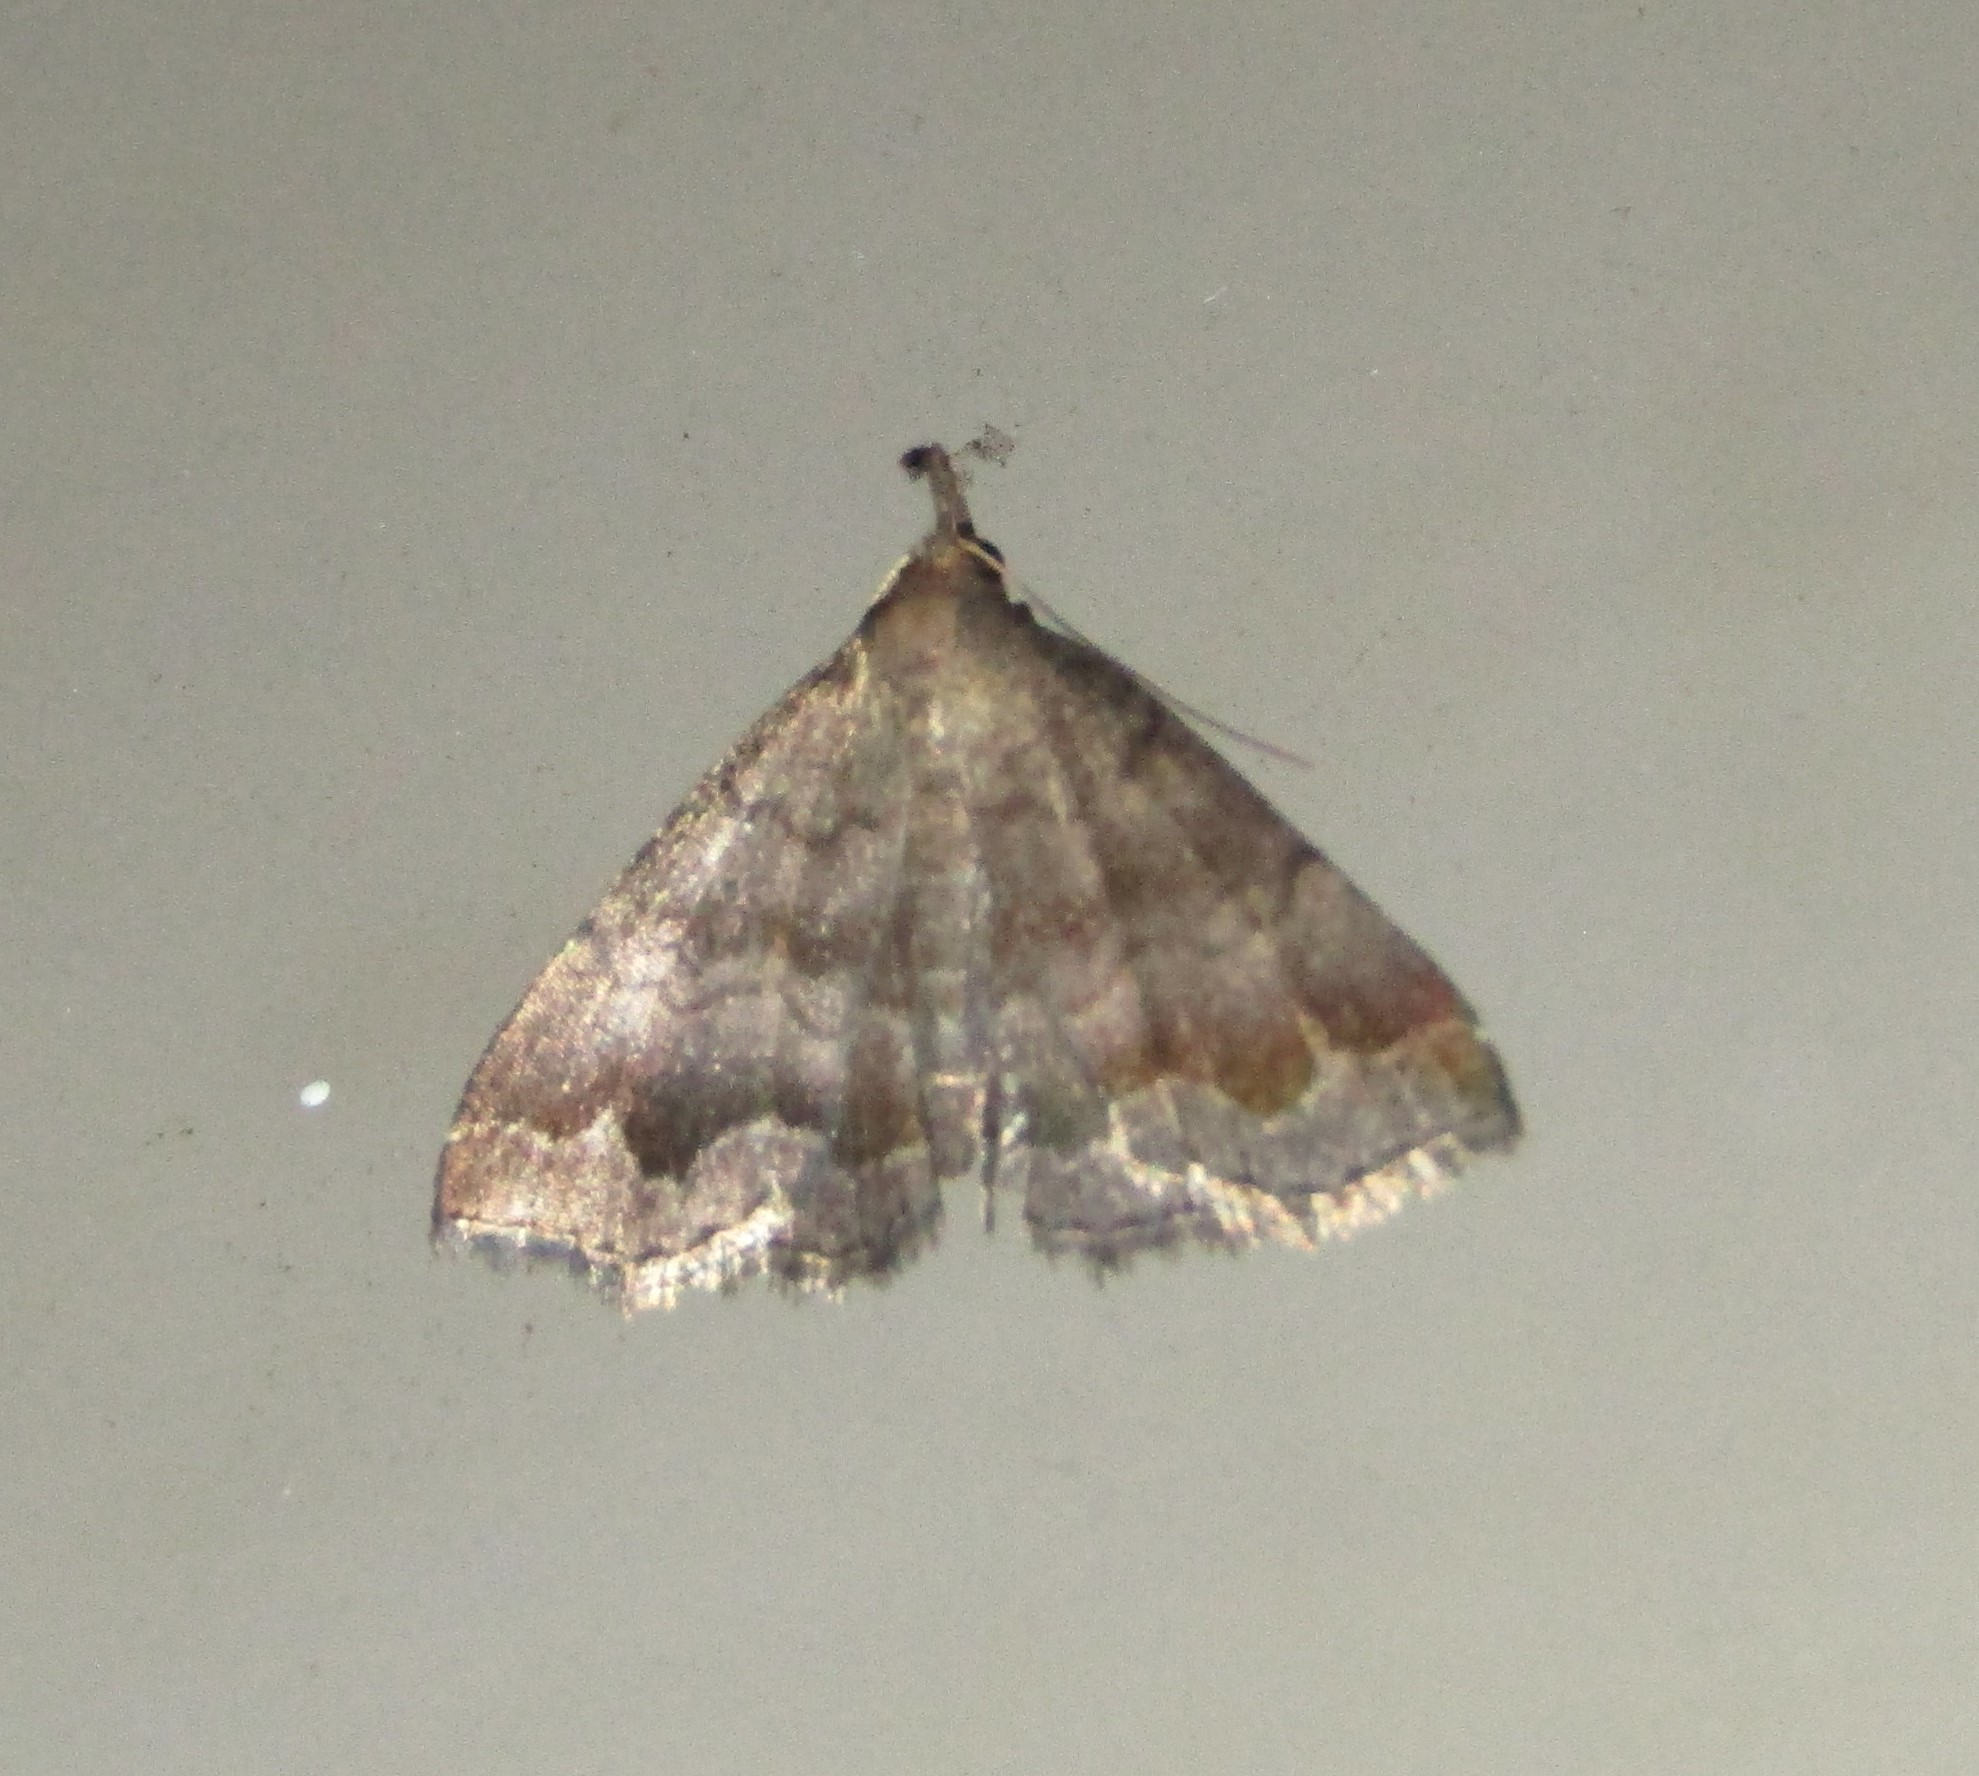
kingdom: Animalia
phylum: Arthropoda
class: Insecta
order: Lepidoptera
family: Erebidae
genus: Phalaenostola
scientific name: Phalaenostola larentioides
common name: Black-banded owlet
